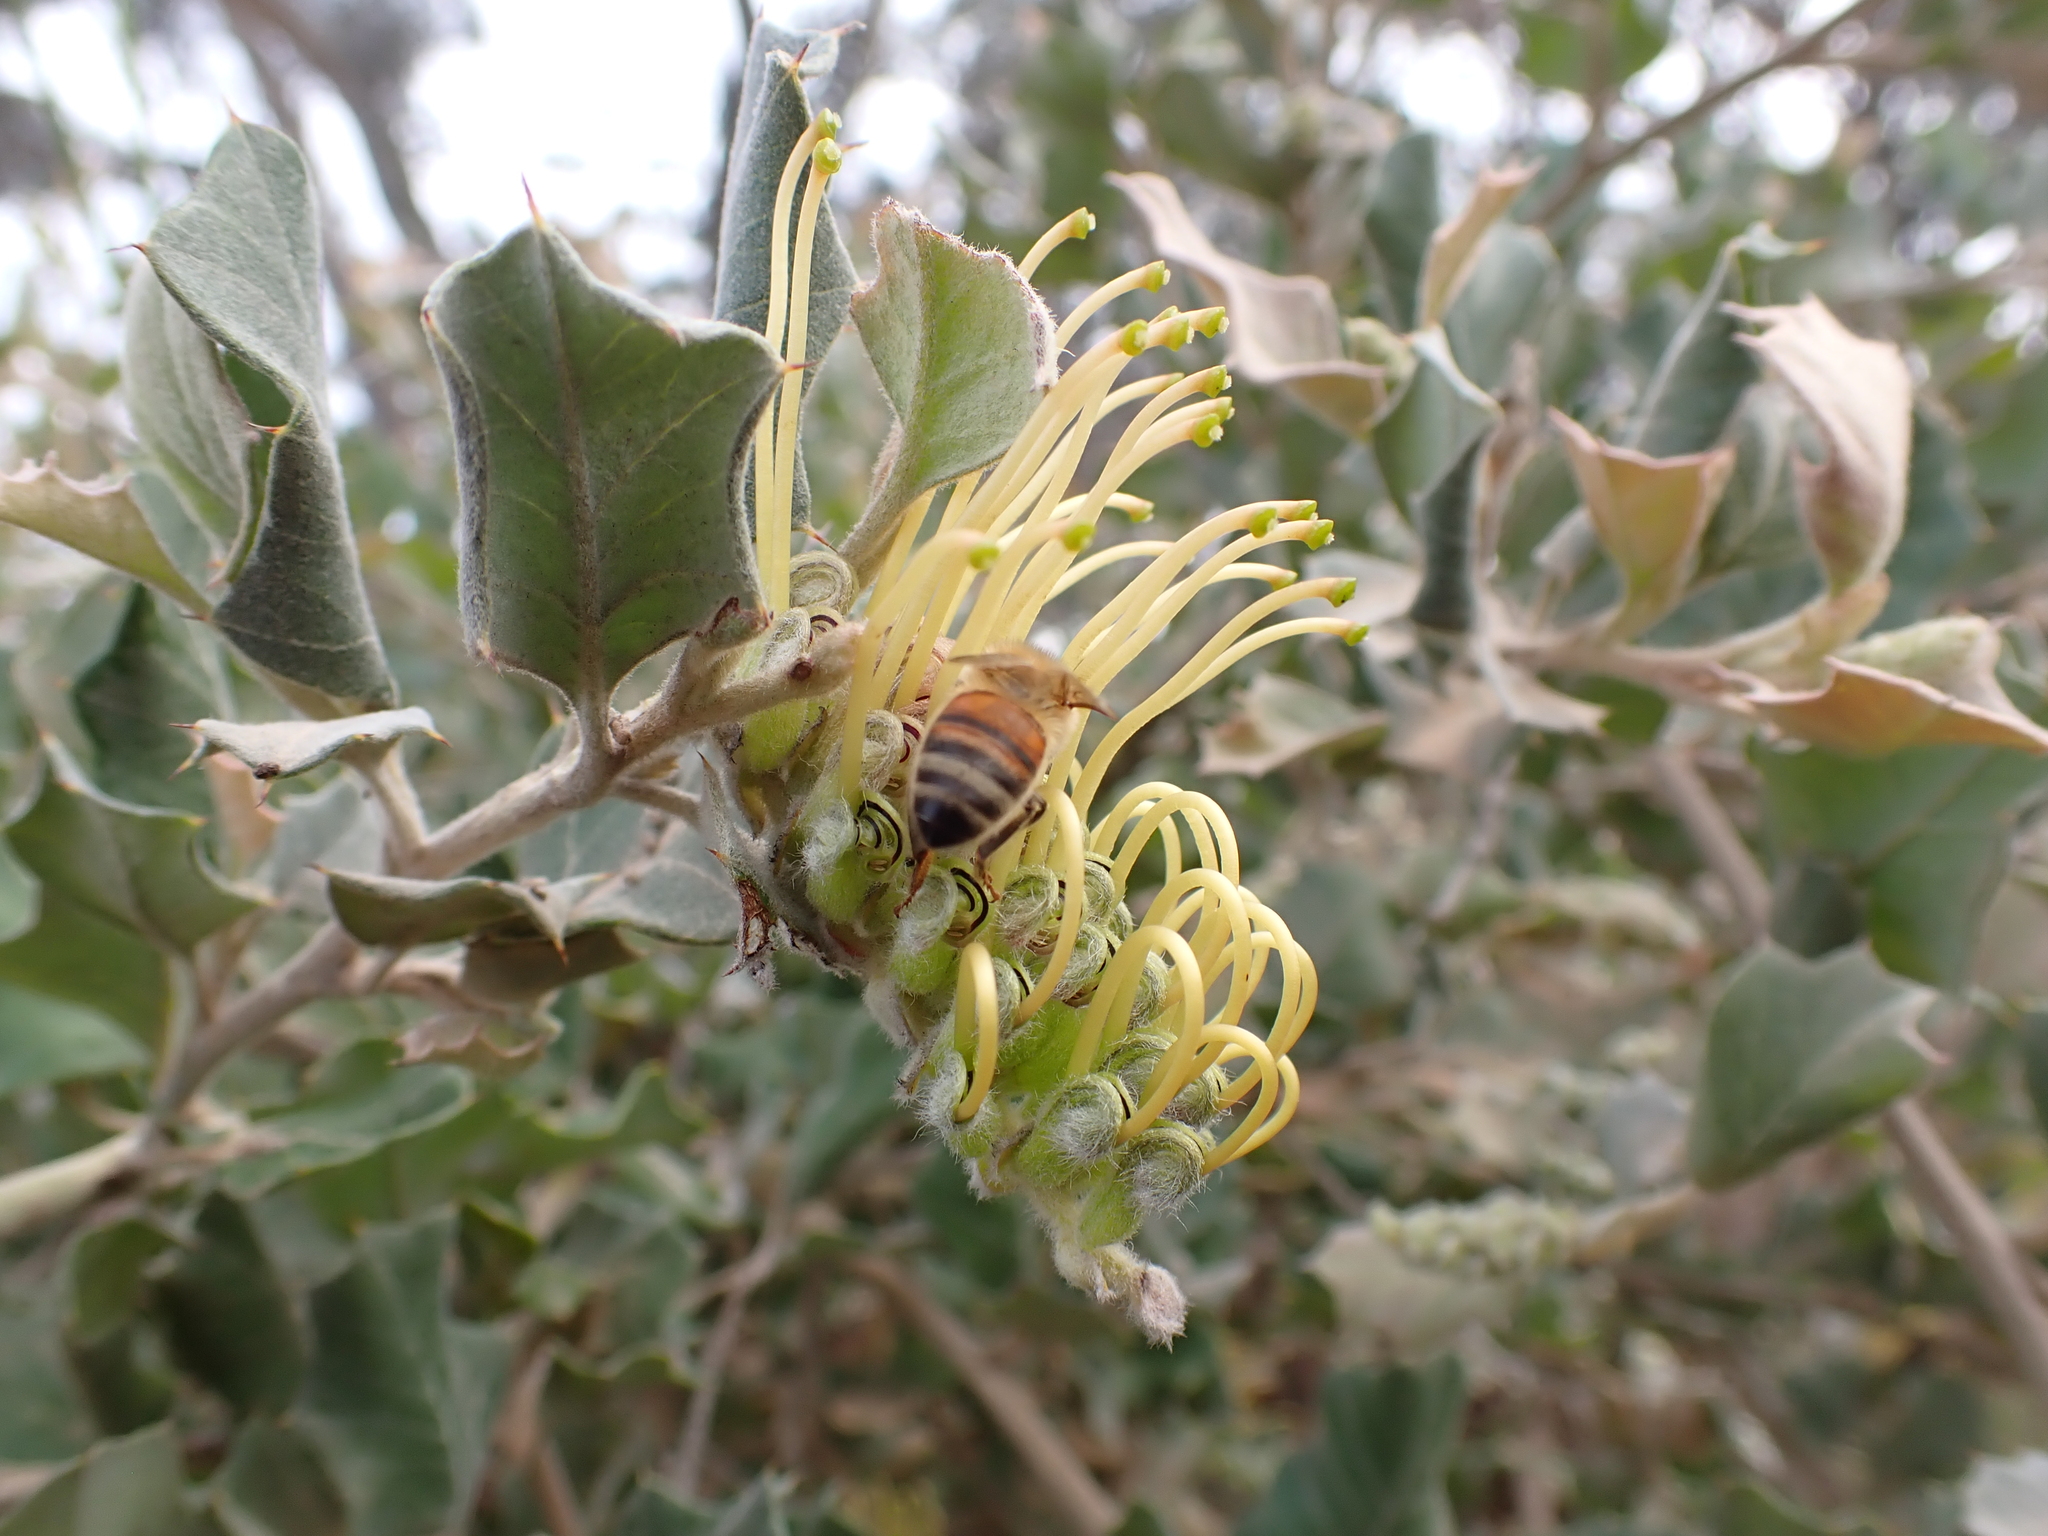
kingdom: Plantae
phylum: Tracheophyta
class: Magnoliopsida
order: Proteales
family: Proteaceae
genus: Grevillea
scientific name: Grevillea aquifolium
